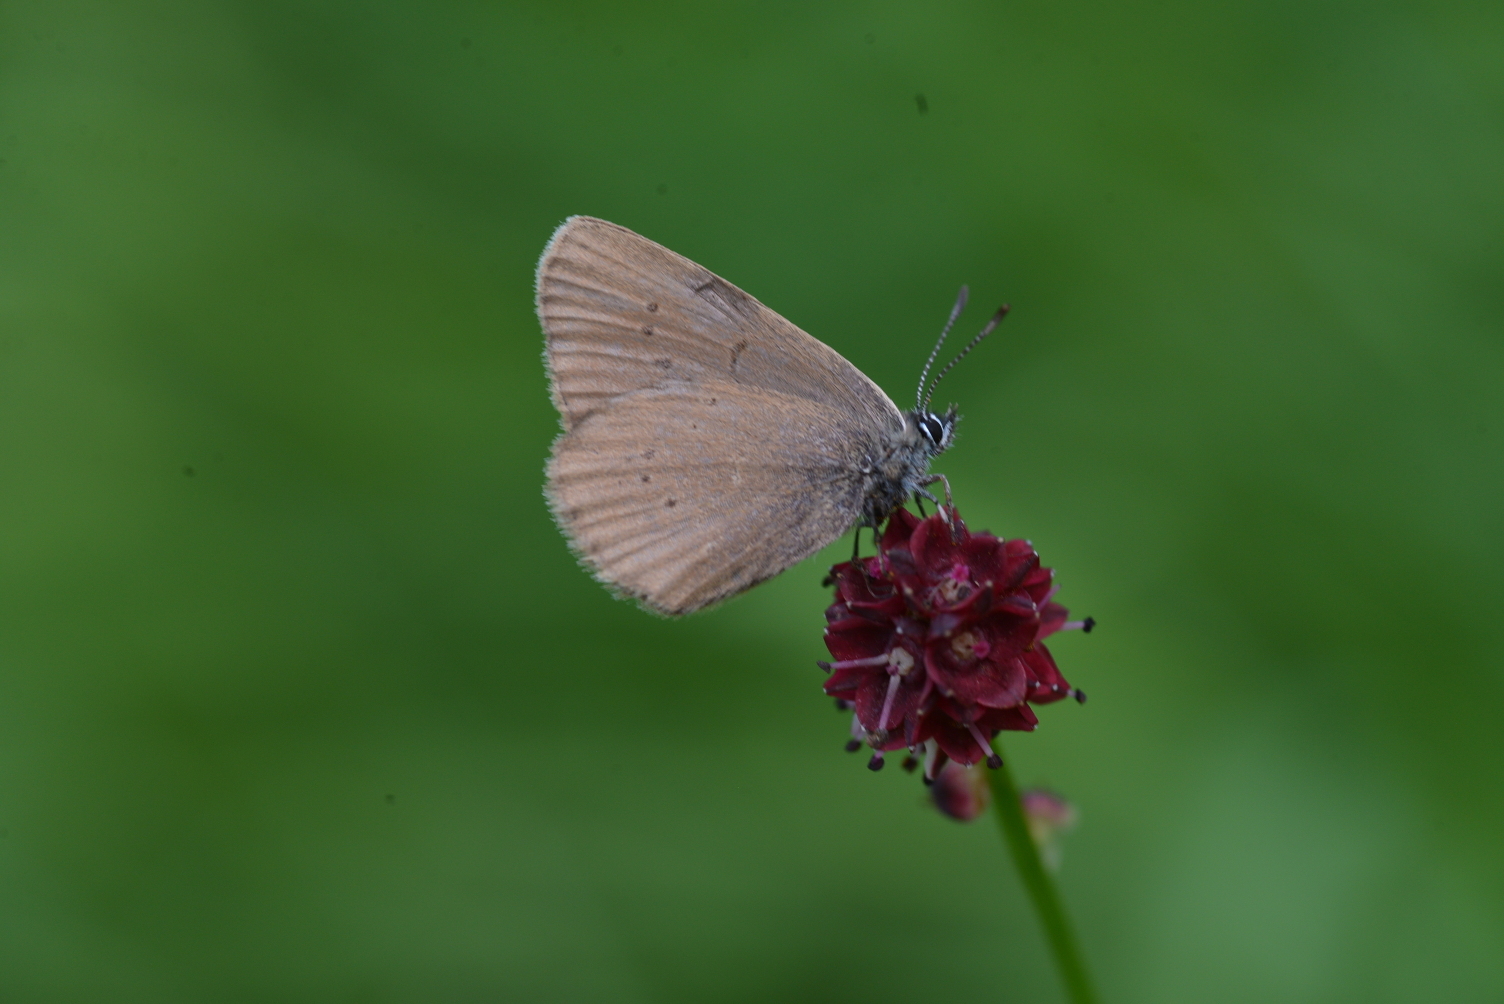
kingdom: Animalia
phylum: Arthropoda
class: Insecta
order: Lepidoptera
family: Lycaenidae
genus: Maculinea
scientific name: Maculinea nausithous
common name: Dusky large blue
